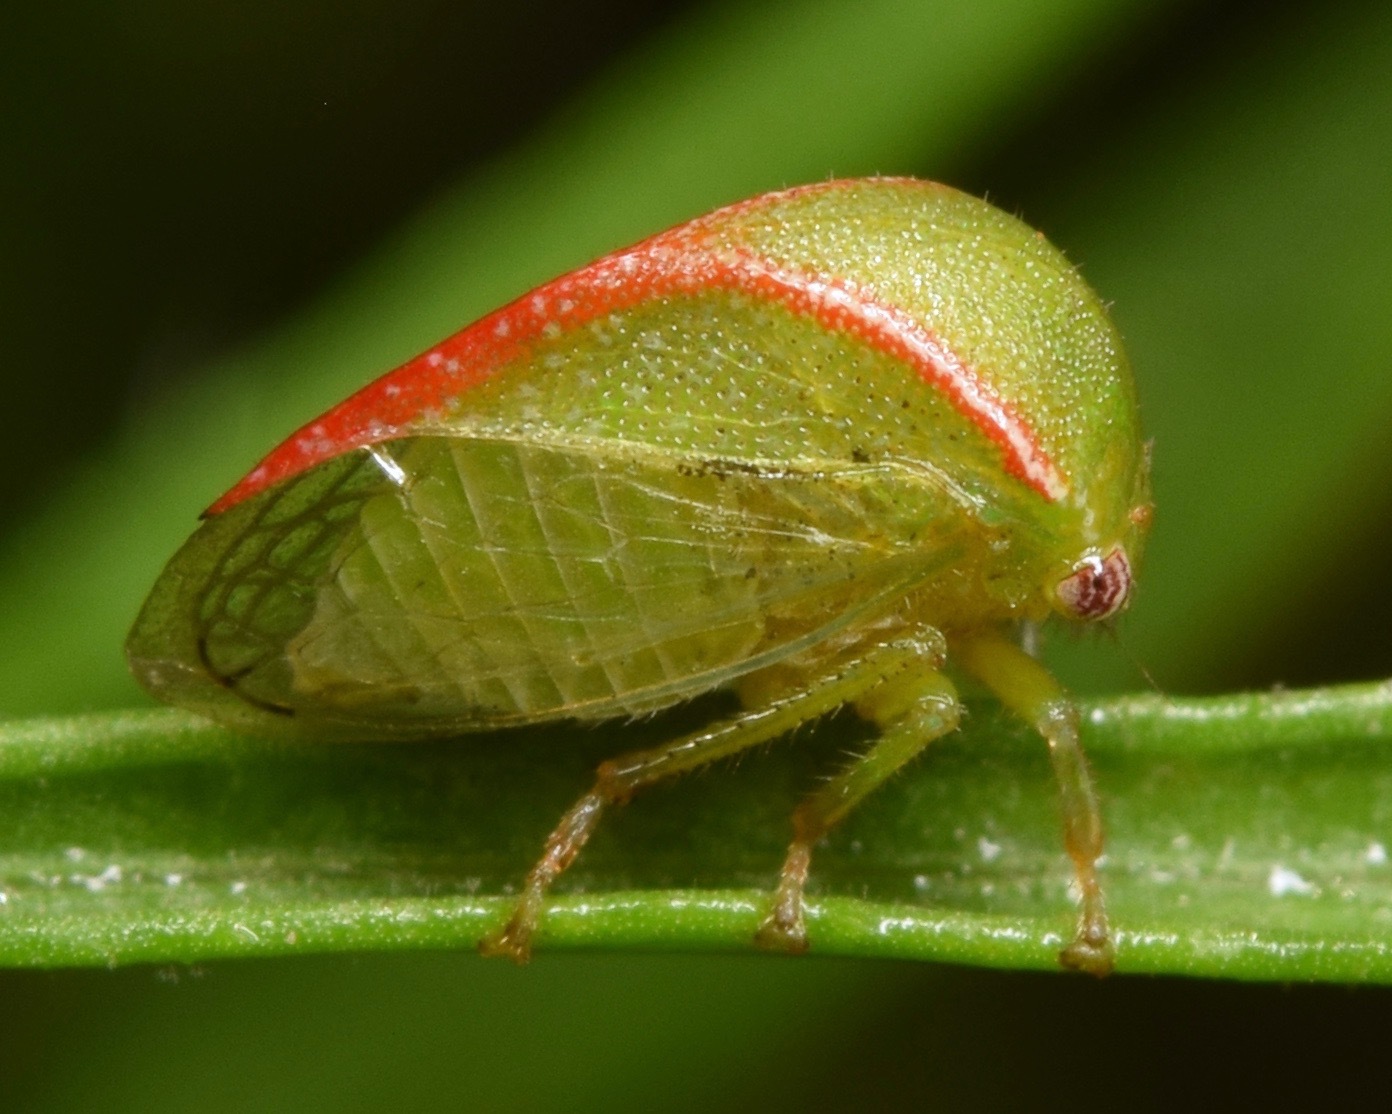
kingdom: Animalia
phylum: Arthropoda
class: Insecta
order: Hemiptera
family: Membracidae
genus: Spissistilus
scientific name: Spissistilus festina
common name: Membracid bug
